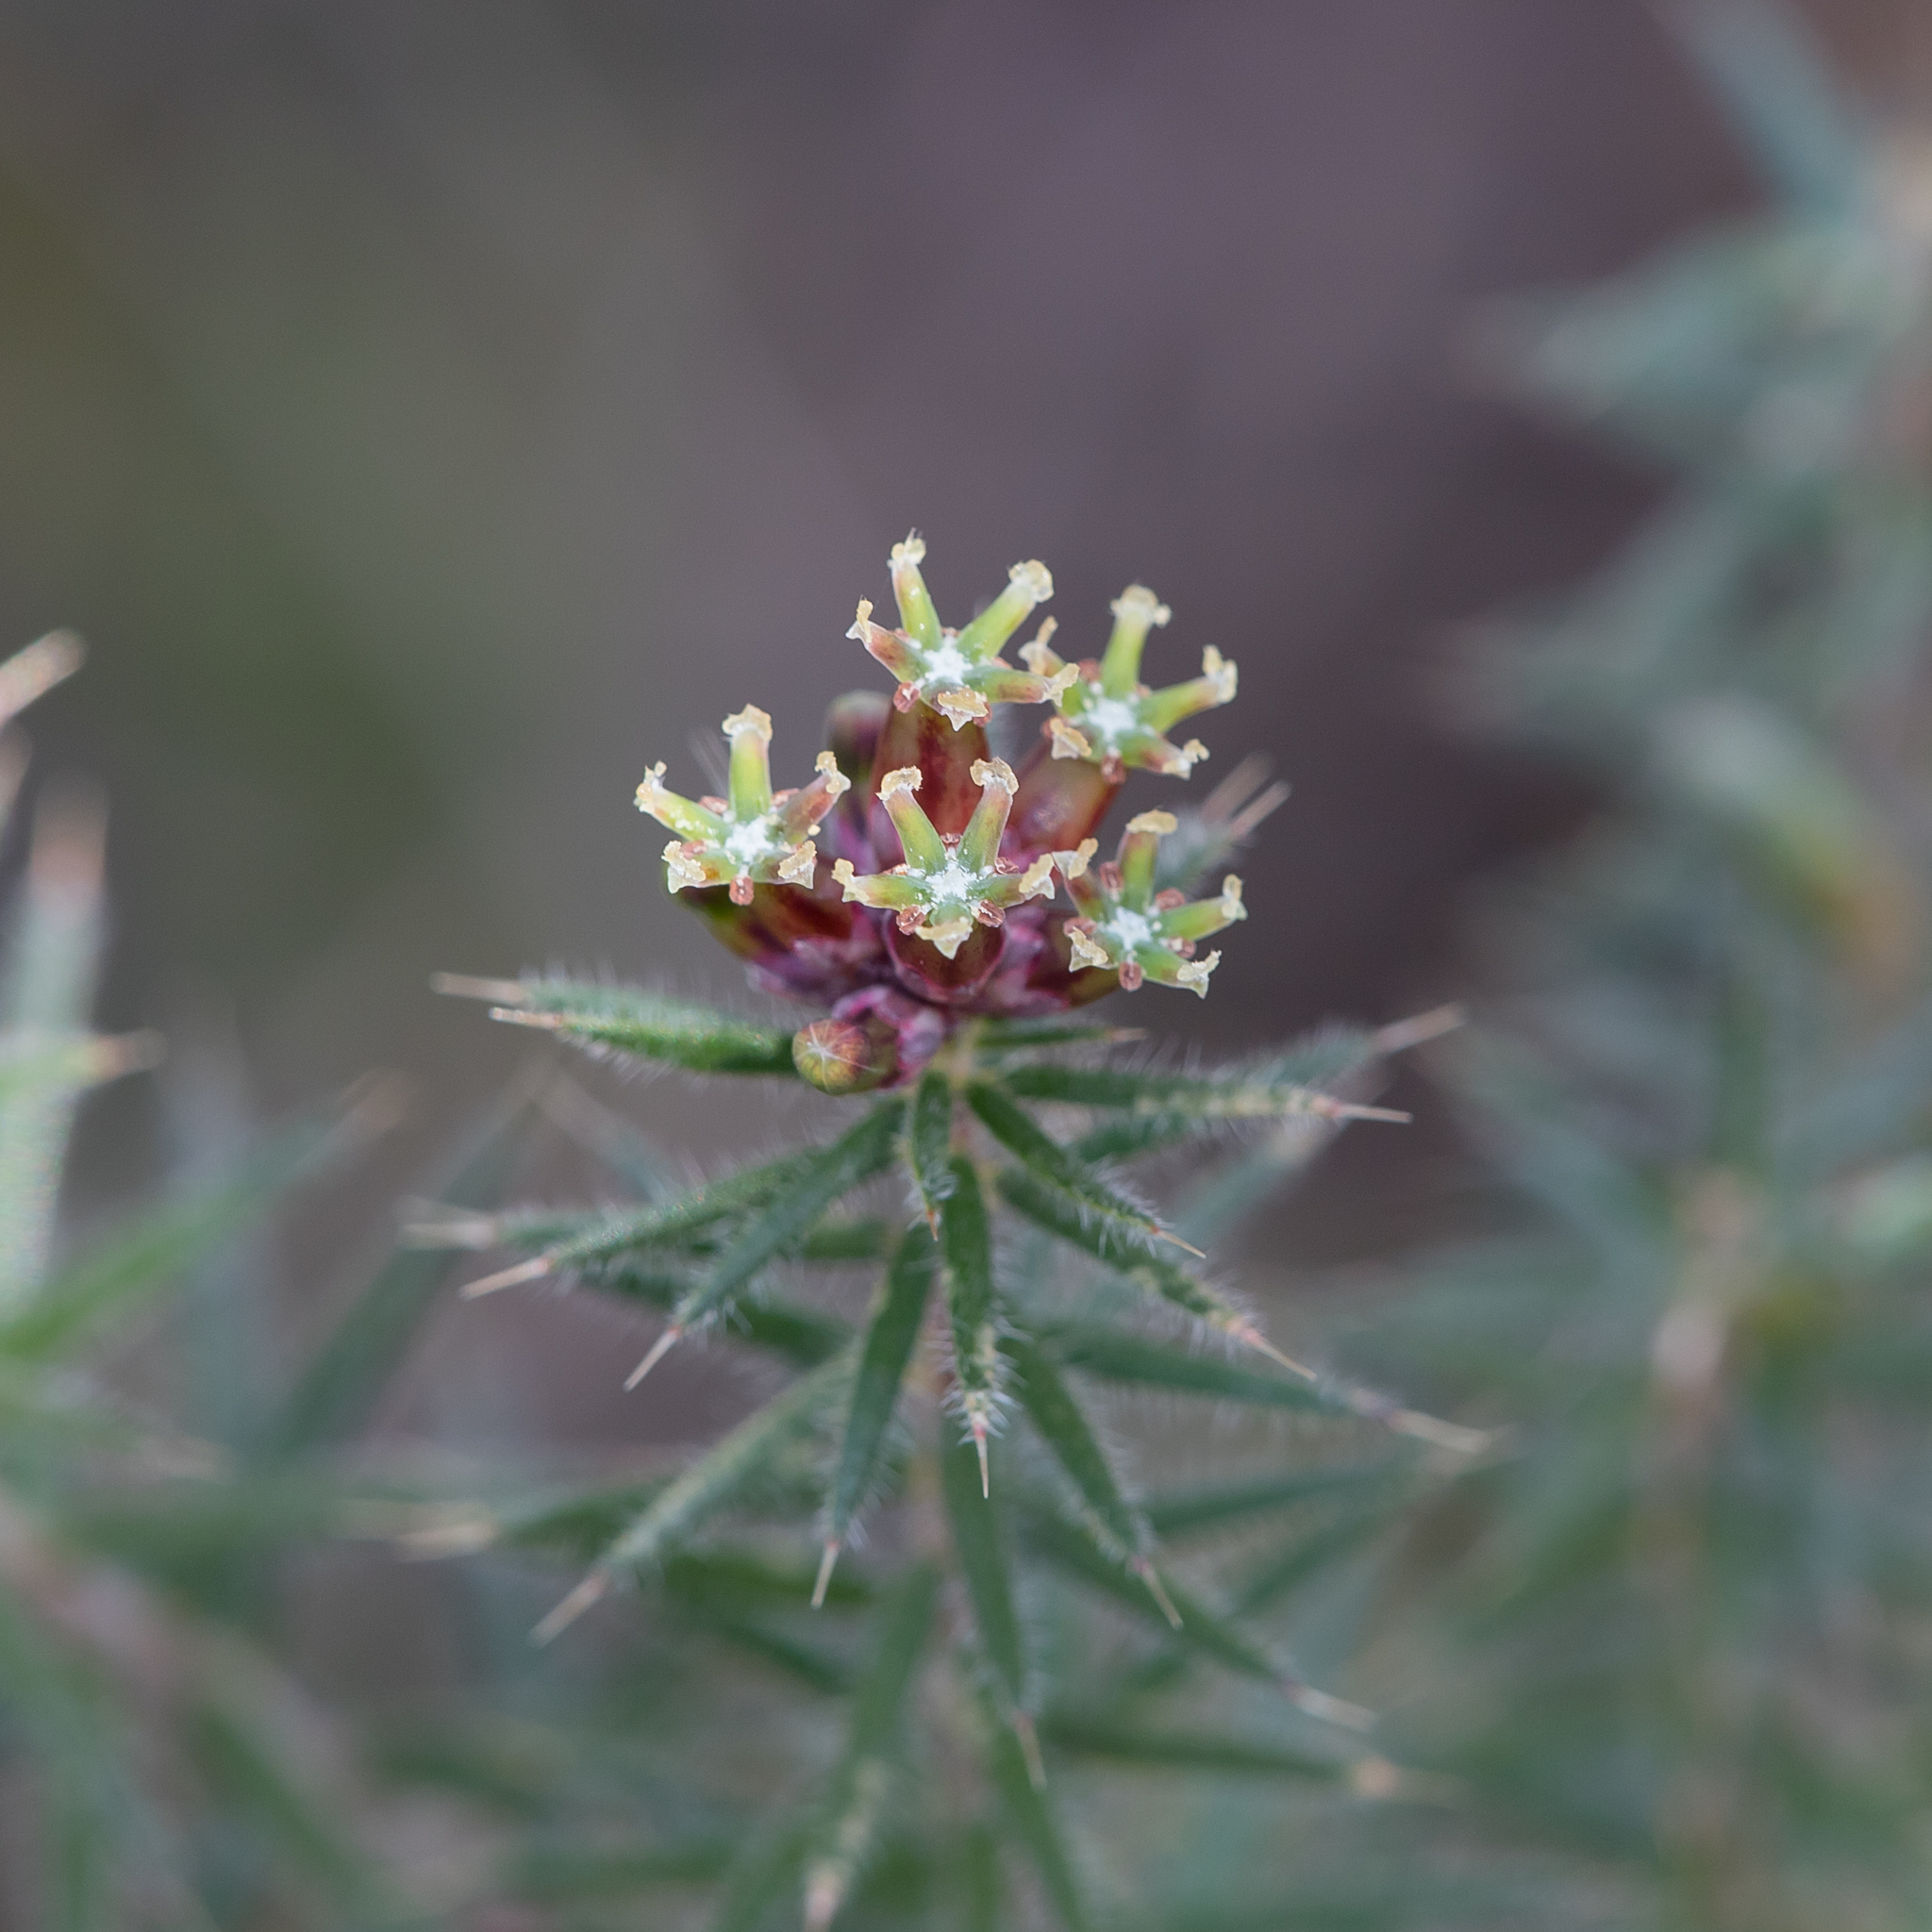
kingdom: Plantae
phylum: Tracheophyta
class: Magnoliopsida
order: Ericales
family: Ericaceae
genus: Acrotriche
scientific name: Acrotriche serrulata
